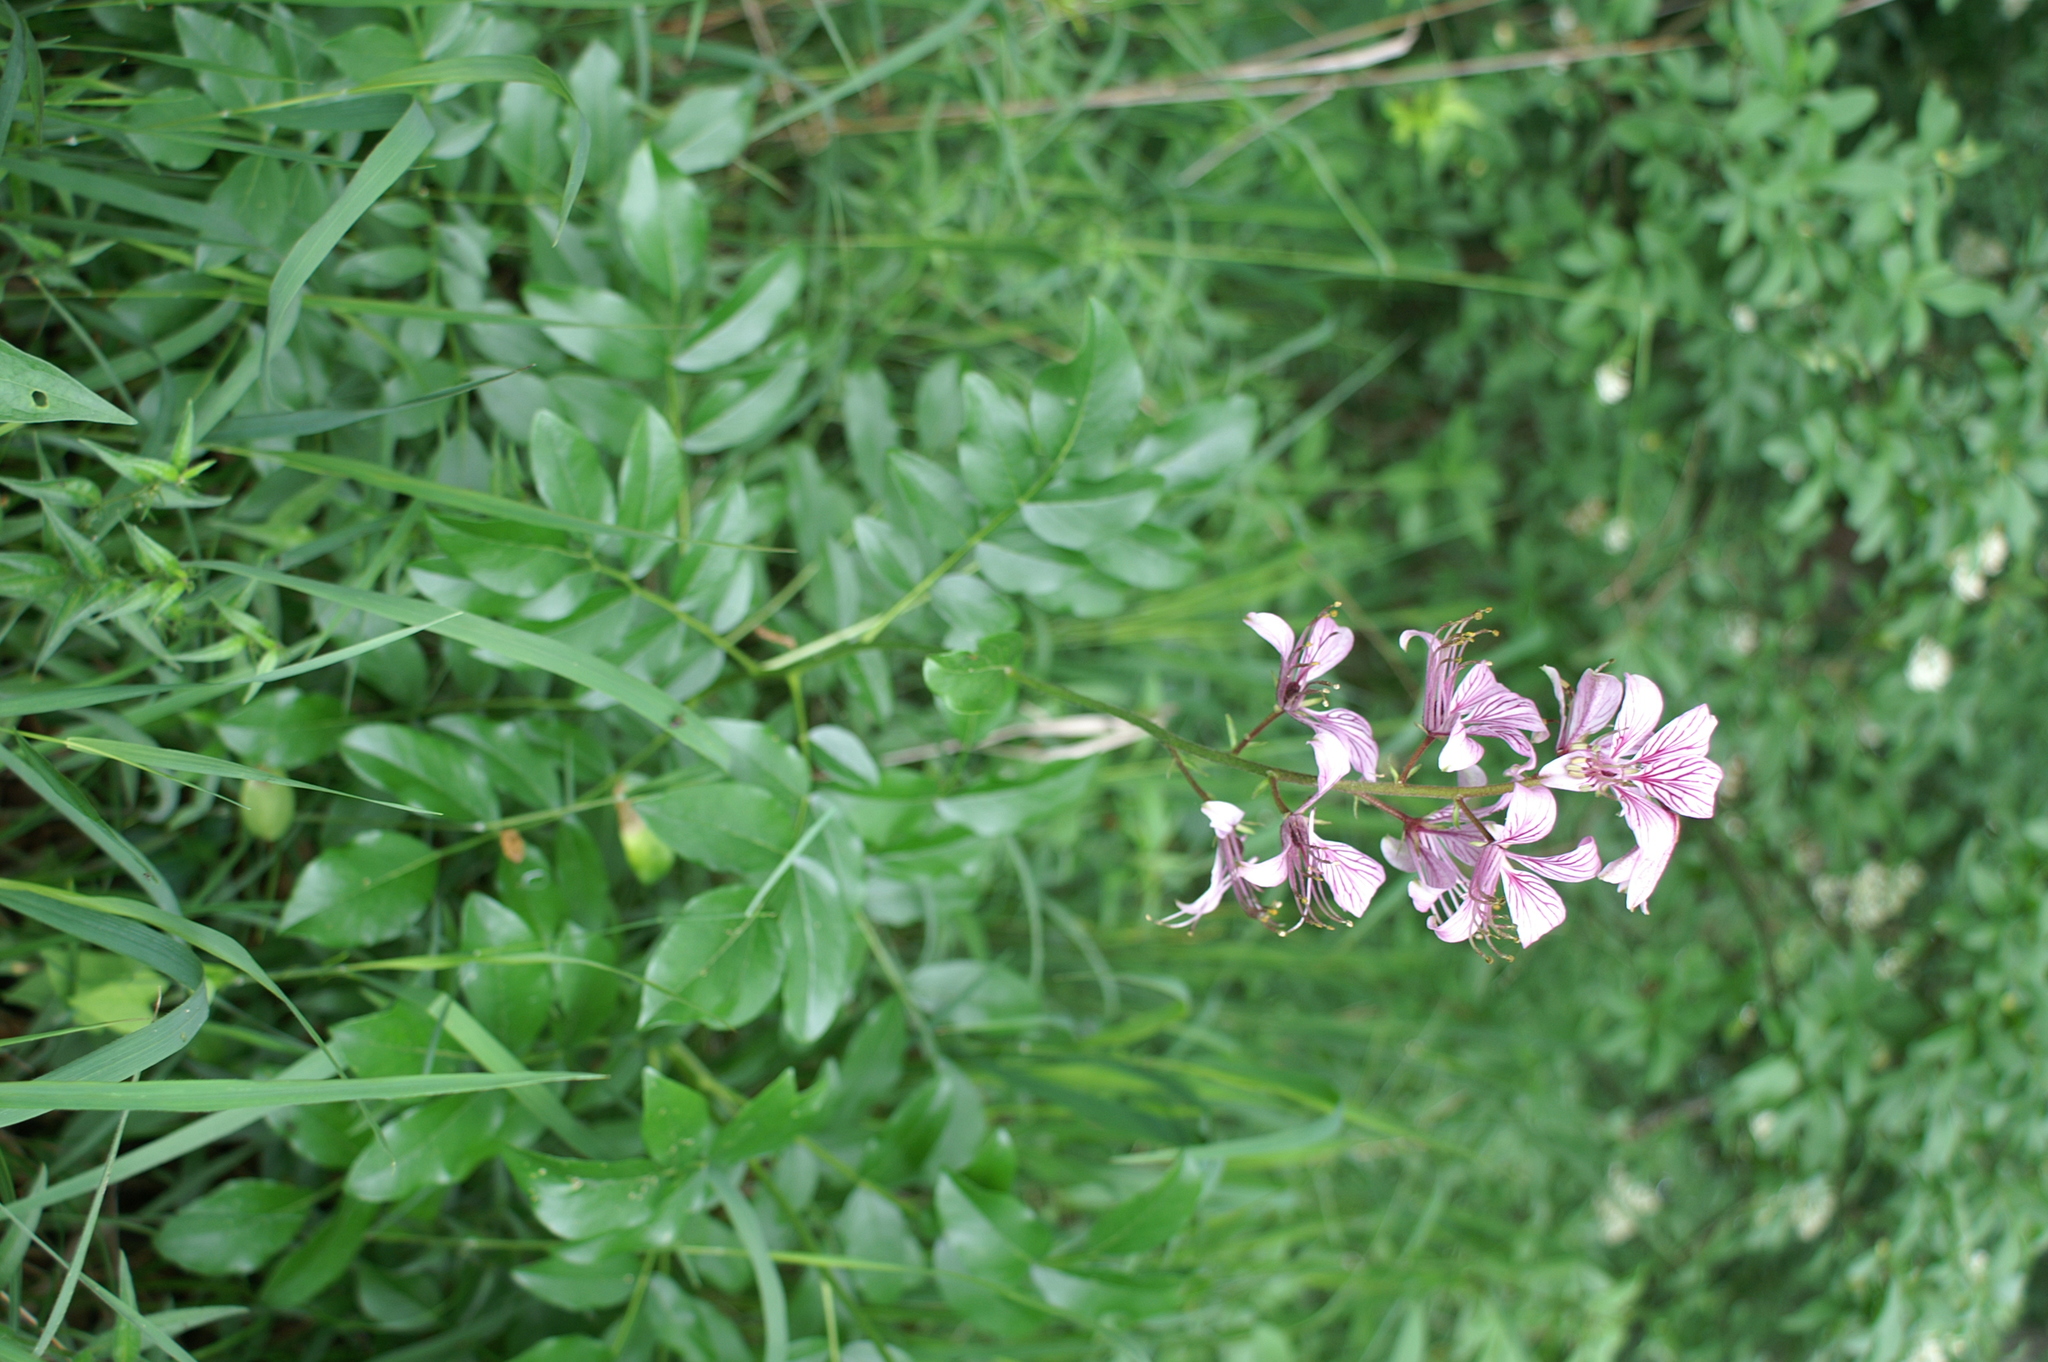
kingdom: Plantae
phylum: Tracheophyta
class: Magnoliopsida
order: Sapindales
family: Rutaceae
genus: Dictamnus
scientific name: Dictamnus albus
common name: Gasplant
